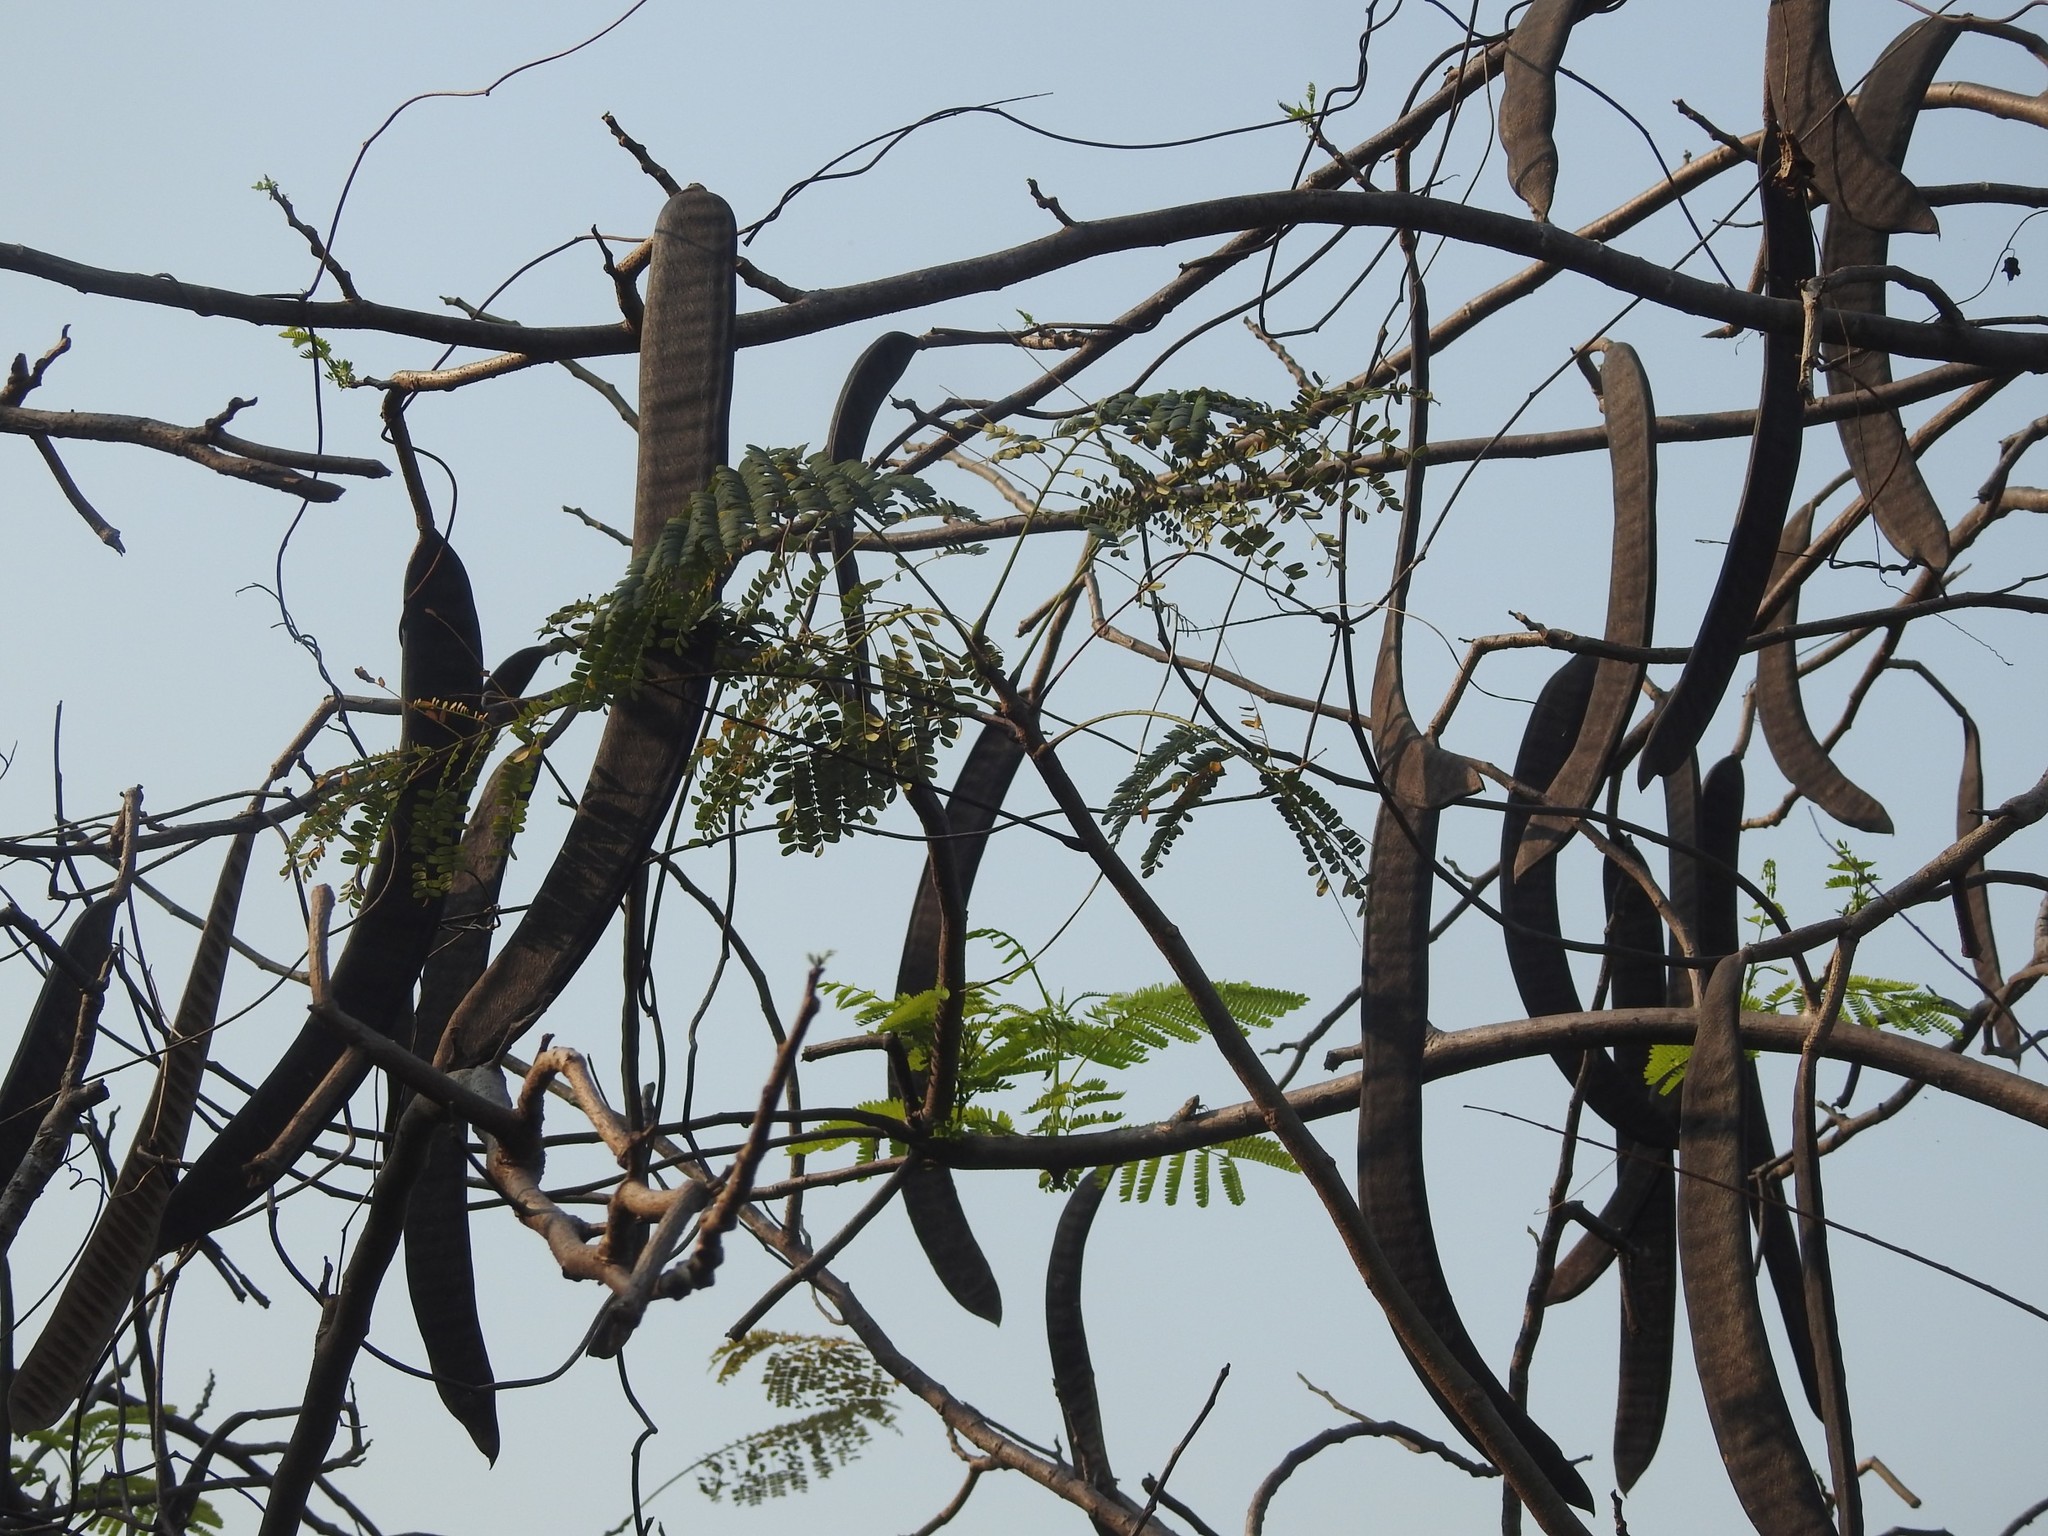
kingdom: Plantae
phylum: Tracheophyta
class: Magnoliopsida
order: Fabales
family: Fabaceae
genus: Delonix
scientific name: Delonix regia
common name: Royal poinciana
